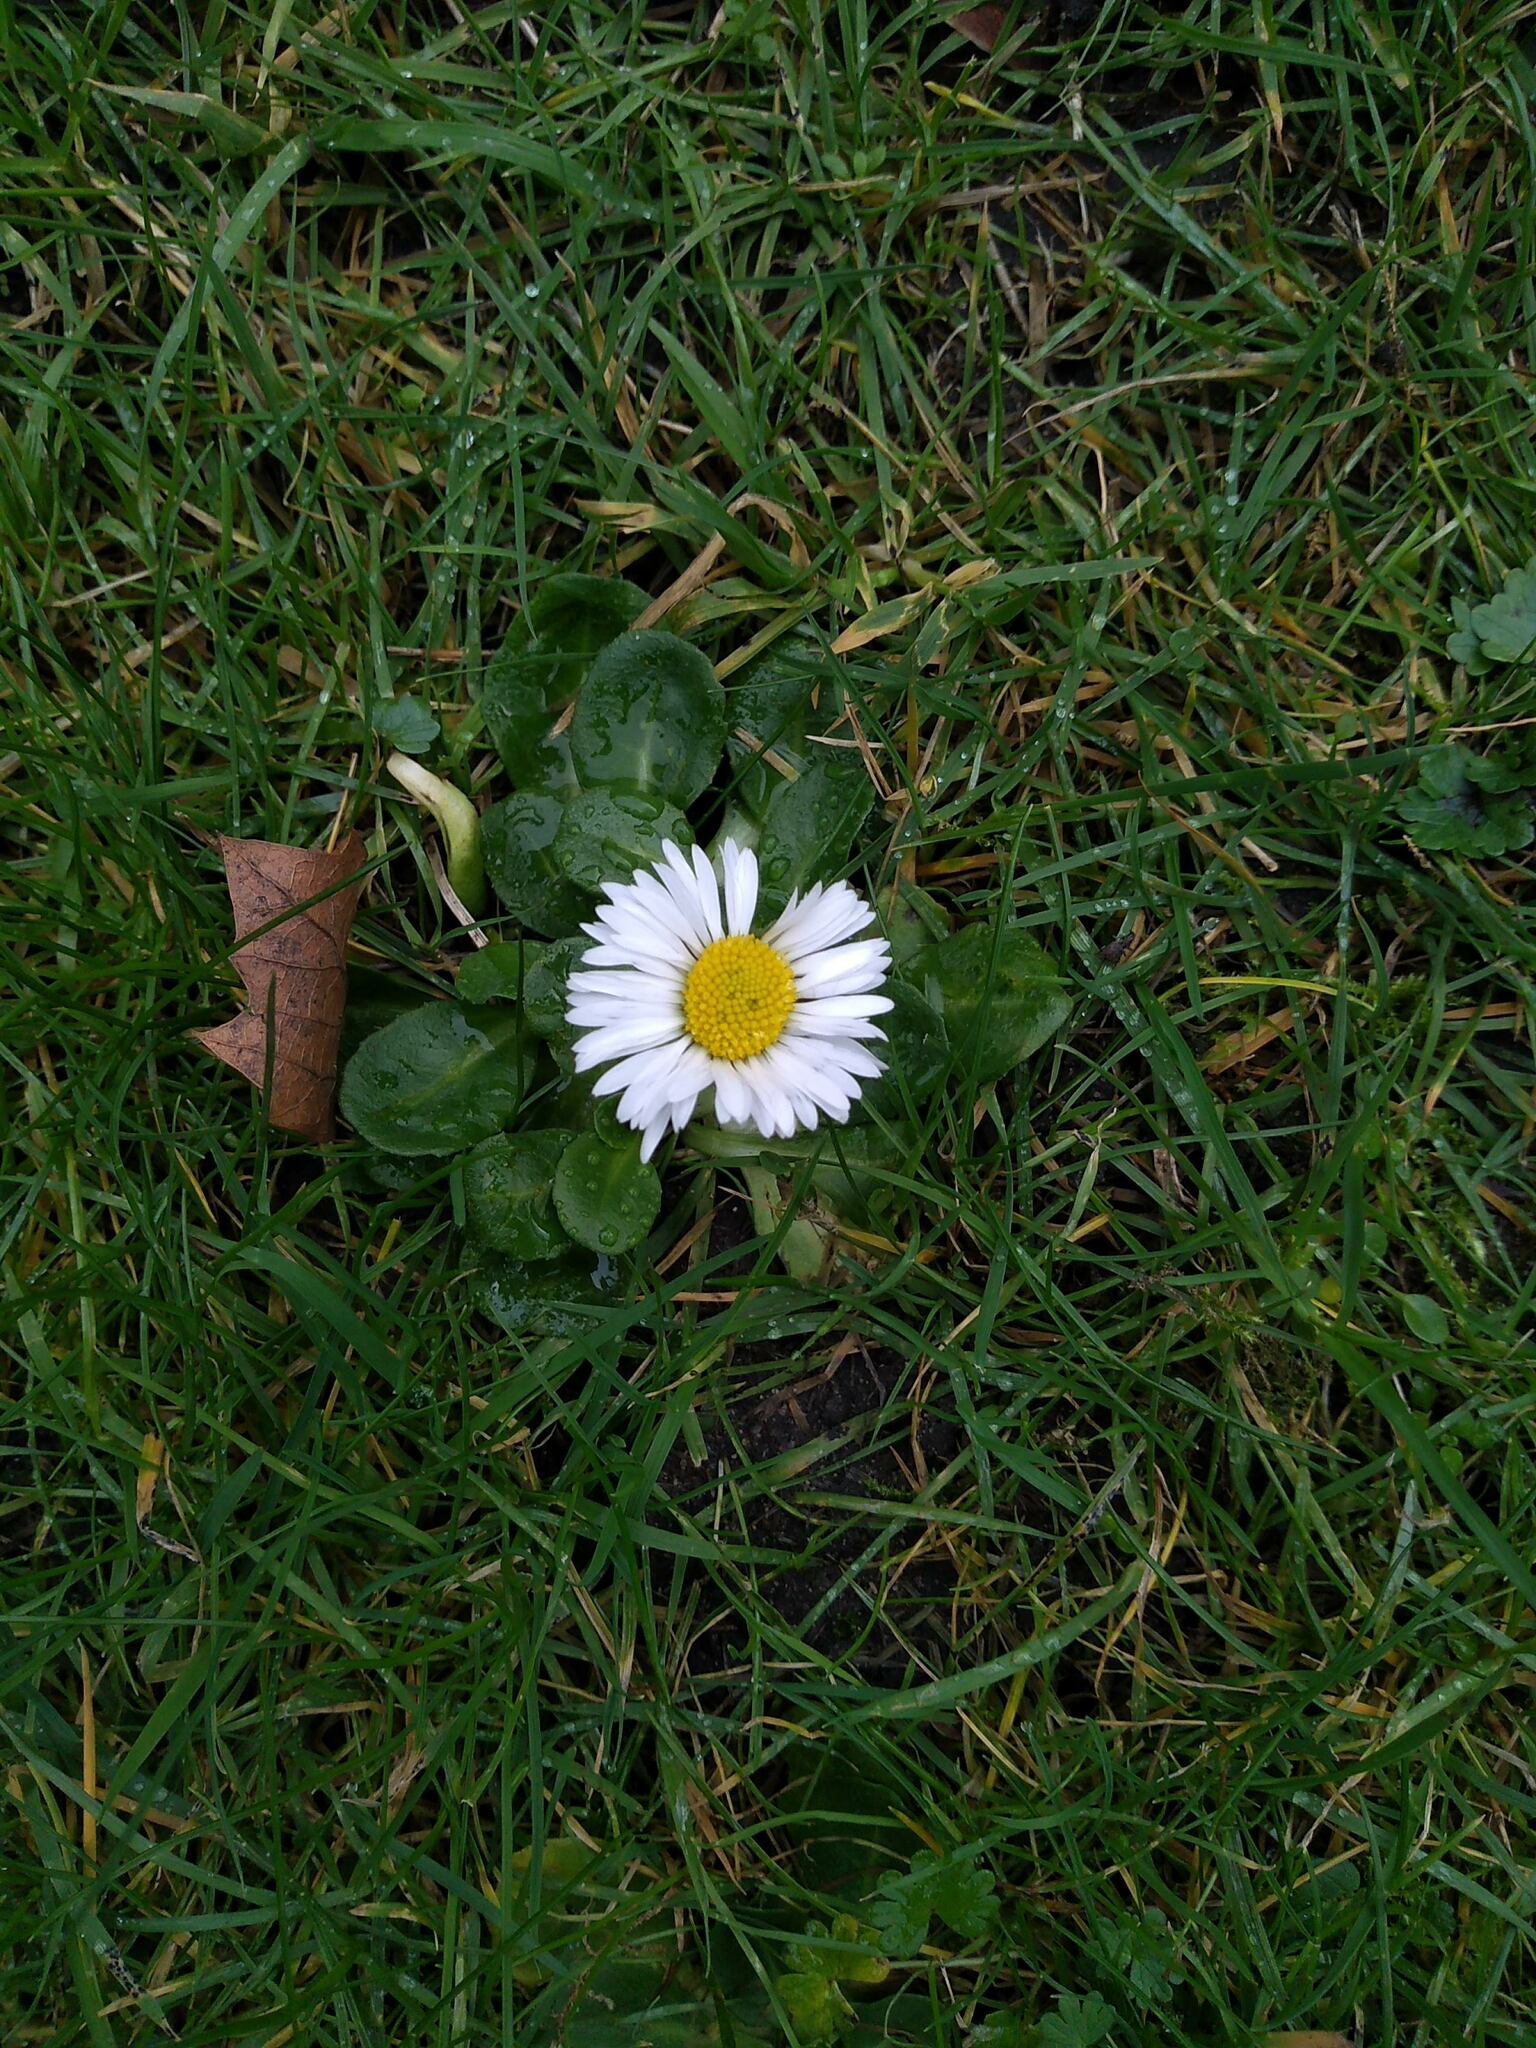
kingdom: Plantae
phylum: Tracheophyta
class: Magnoliopsida
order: Asterales
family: Asteraceae
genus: Bellis
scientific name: Bellis perennis
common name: Lawndaisy
